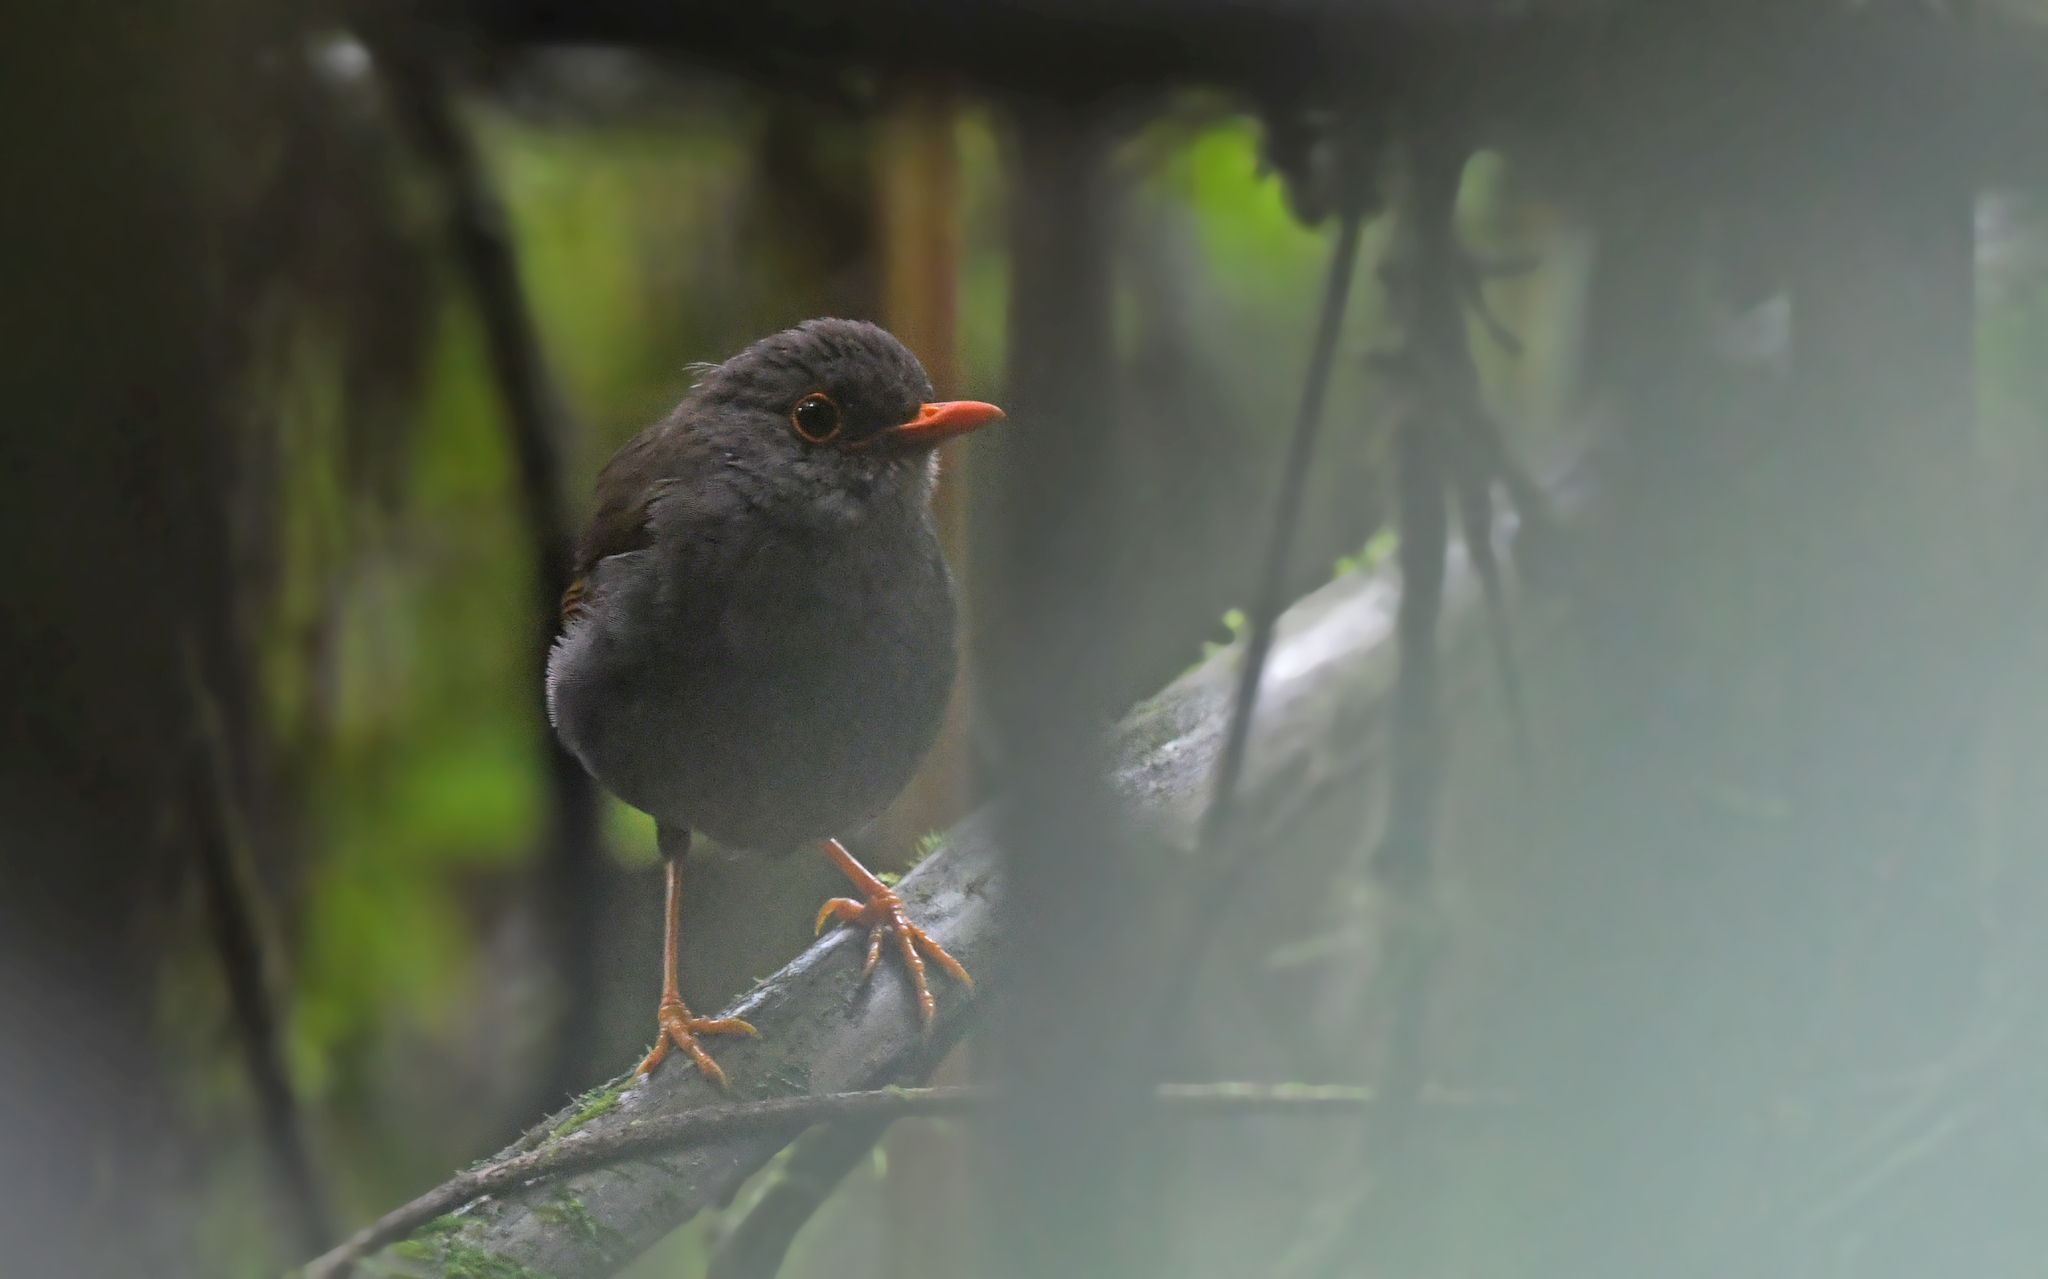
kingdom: Animalia
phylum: Chordata
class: Aves
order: Passeriformes
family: Turdidae
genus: Catharus
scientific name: Catharus aurantiirostris
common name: Orange-billed nightingale-thrush
